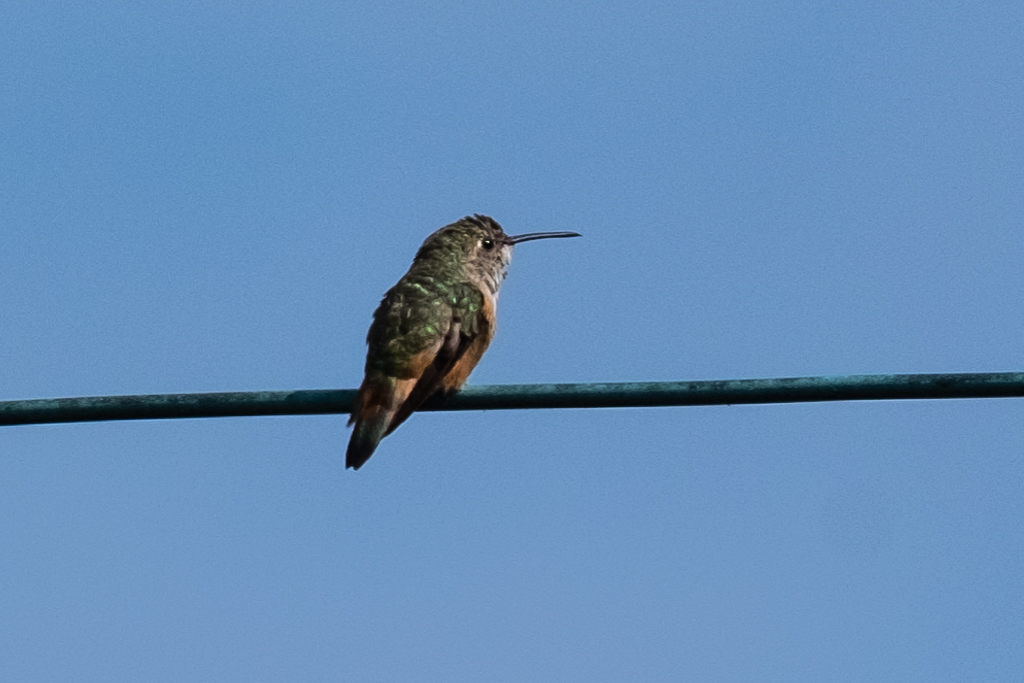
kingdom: Animalia
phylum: Chordata
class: Aves
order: Apodiformes
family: Trochilidae
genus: Selasphorus
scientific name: Selasphorus sasin
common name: Allen's hummingbird
